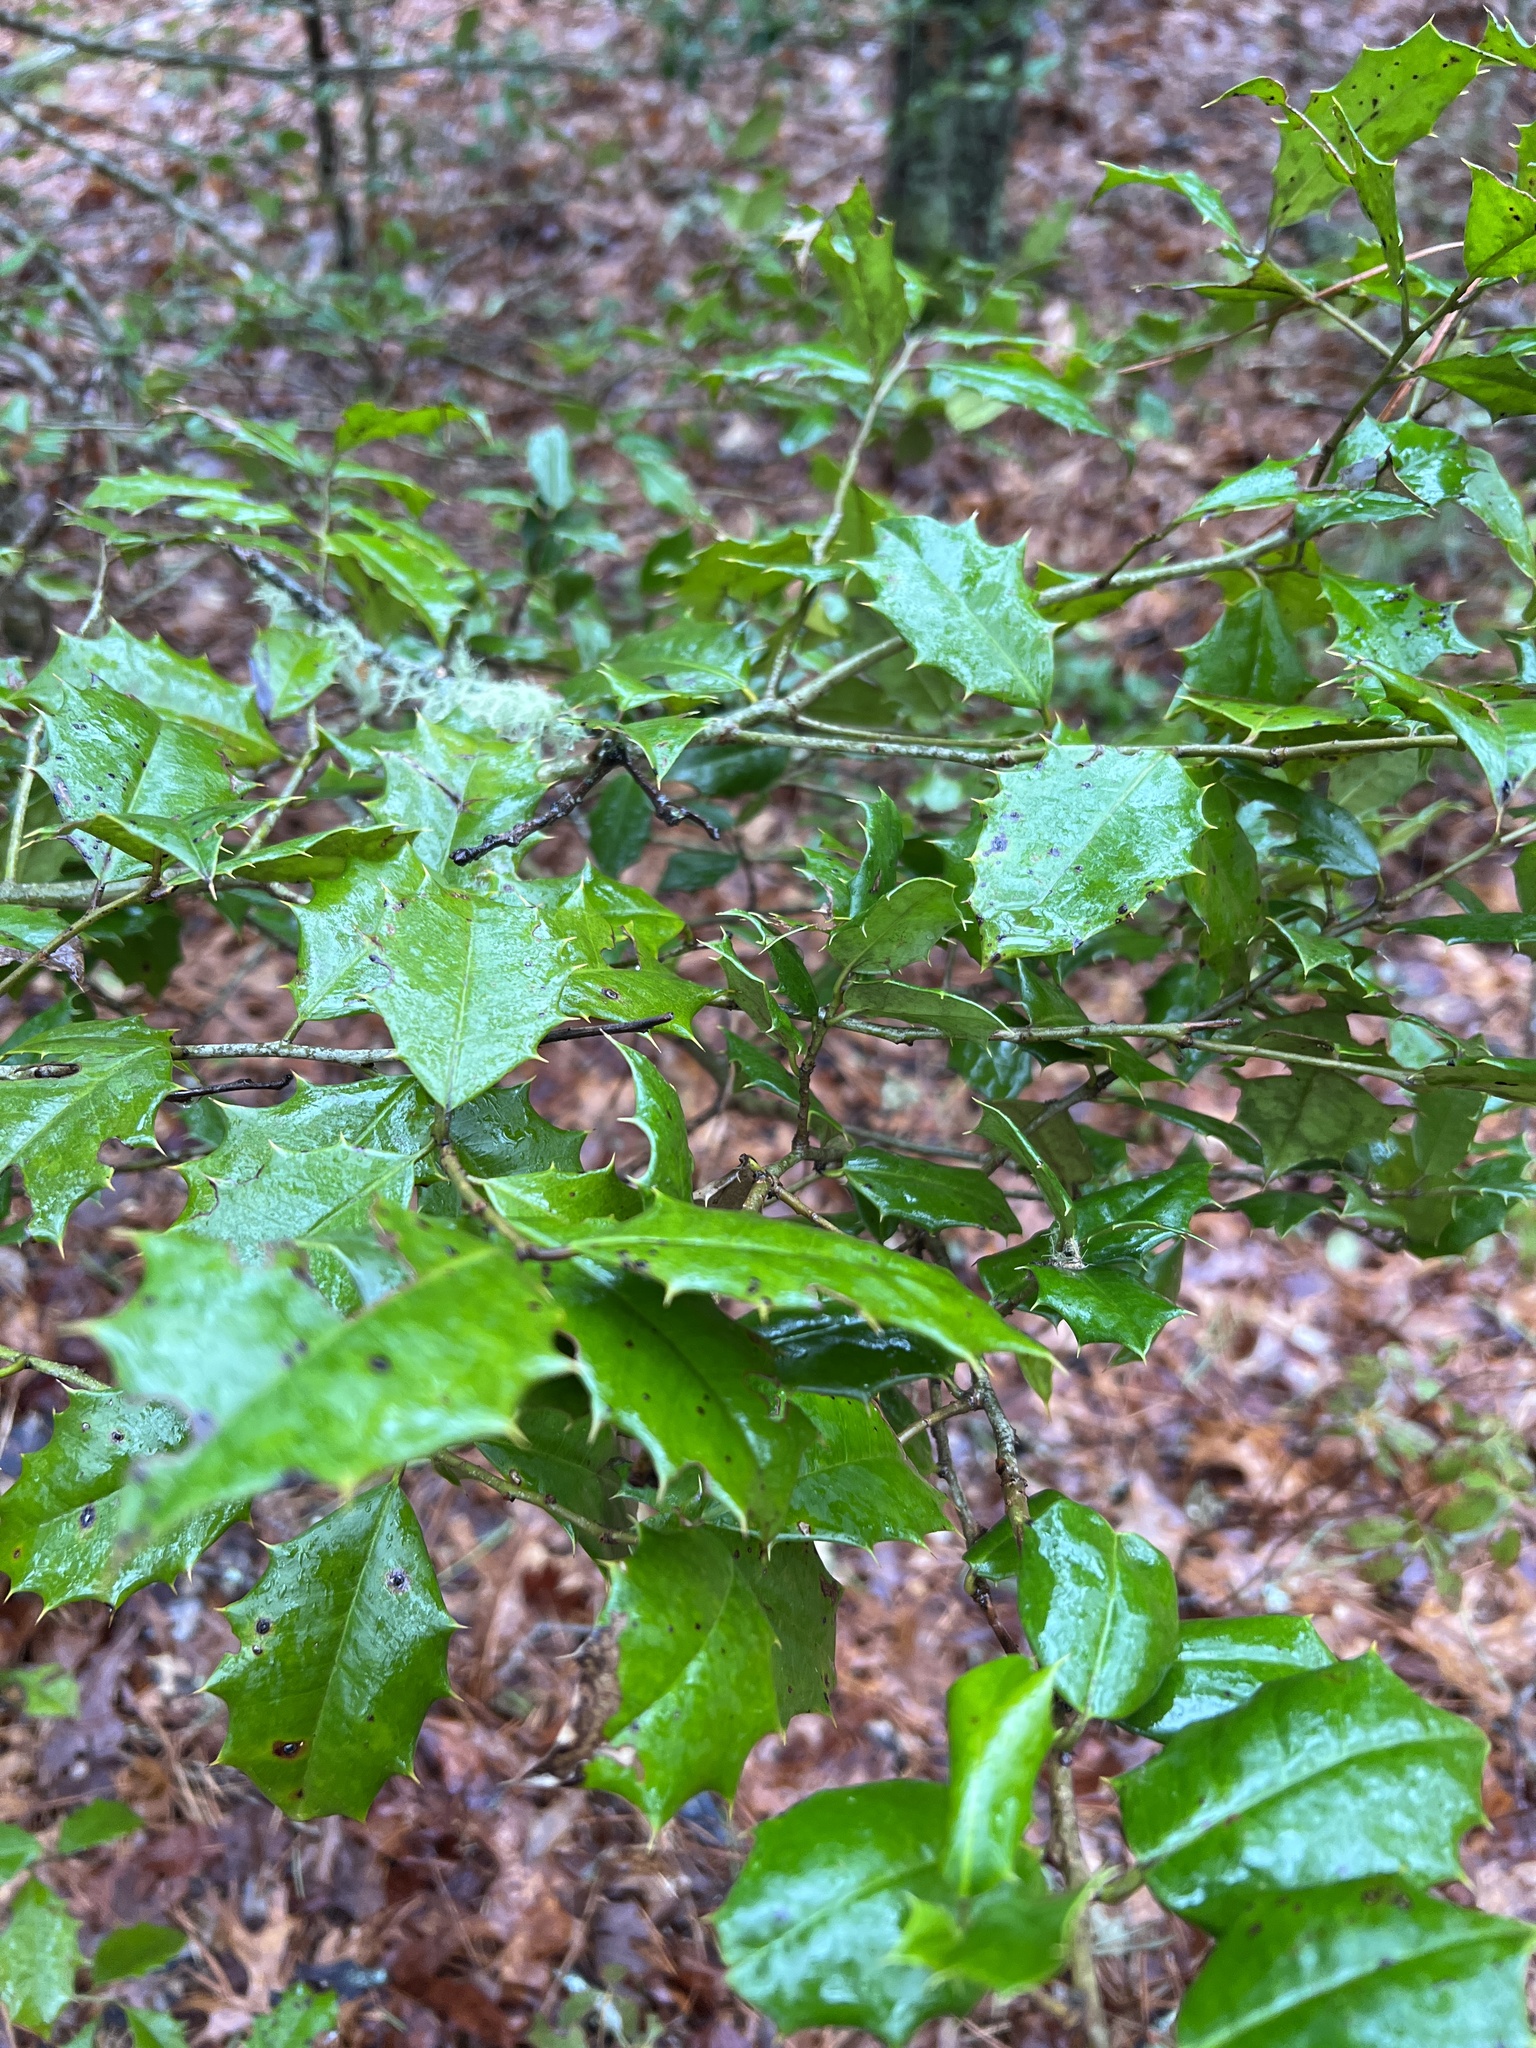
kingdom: Plantae
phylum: Tracheophyta
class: Magnoliopsida
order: Aquifoliales
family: Aquifoliaceae
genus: Ilex
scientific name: Ilex opaca
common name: American holly
